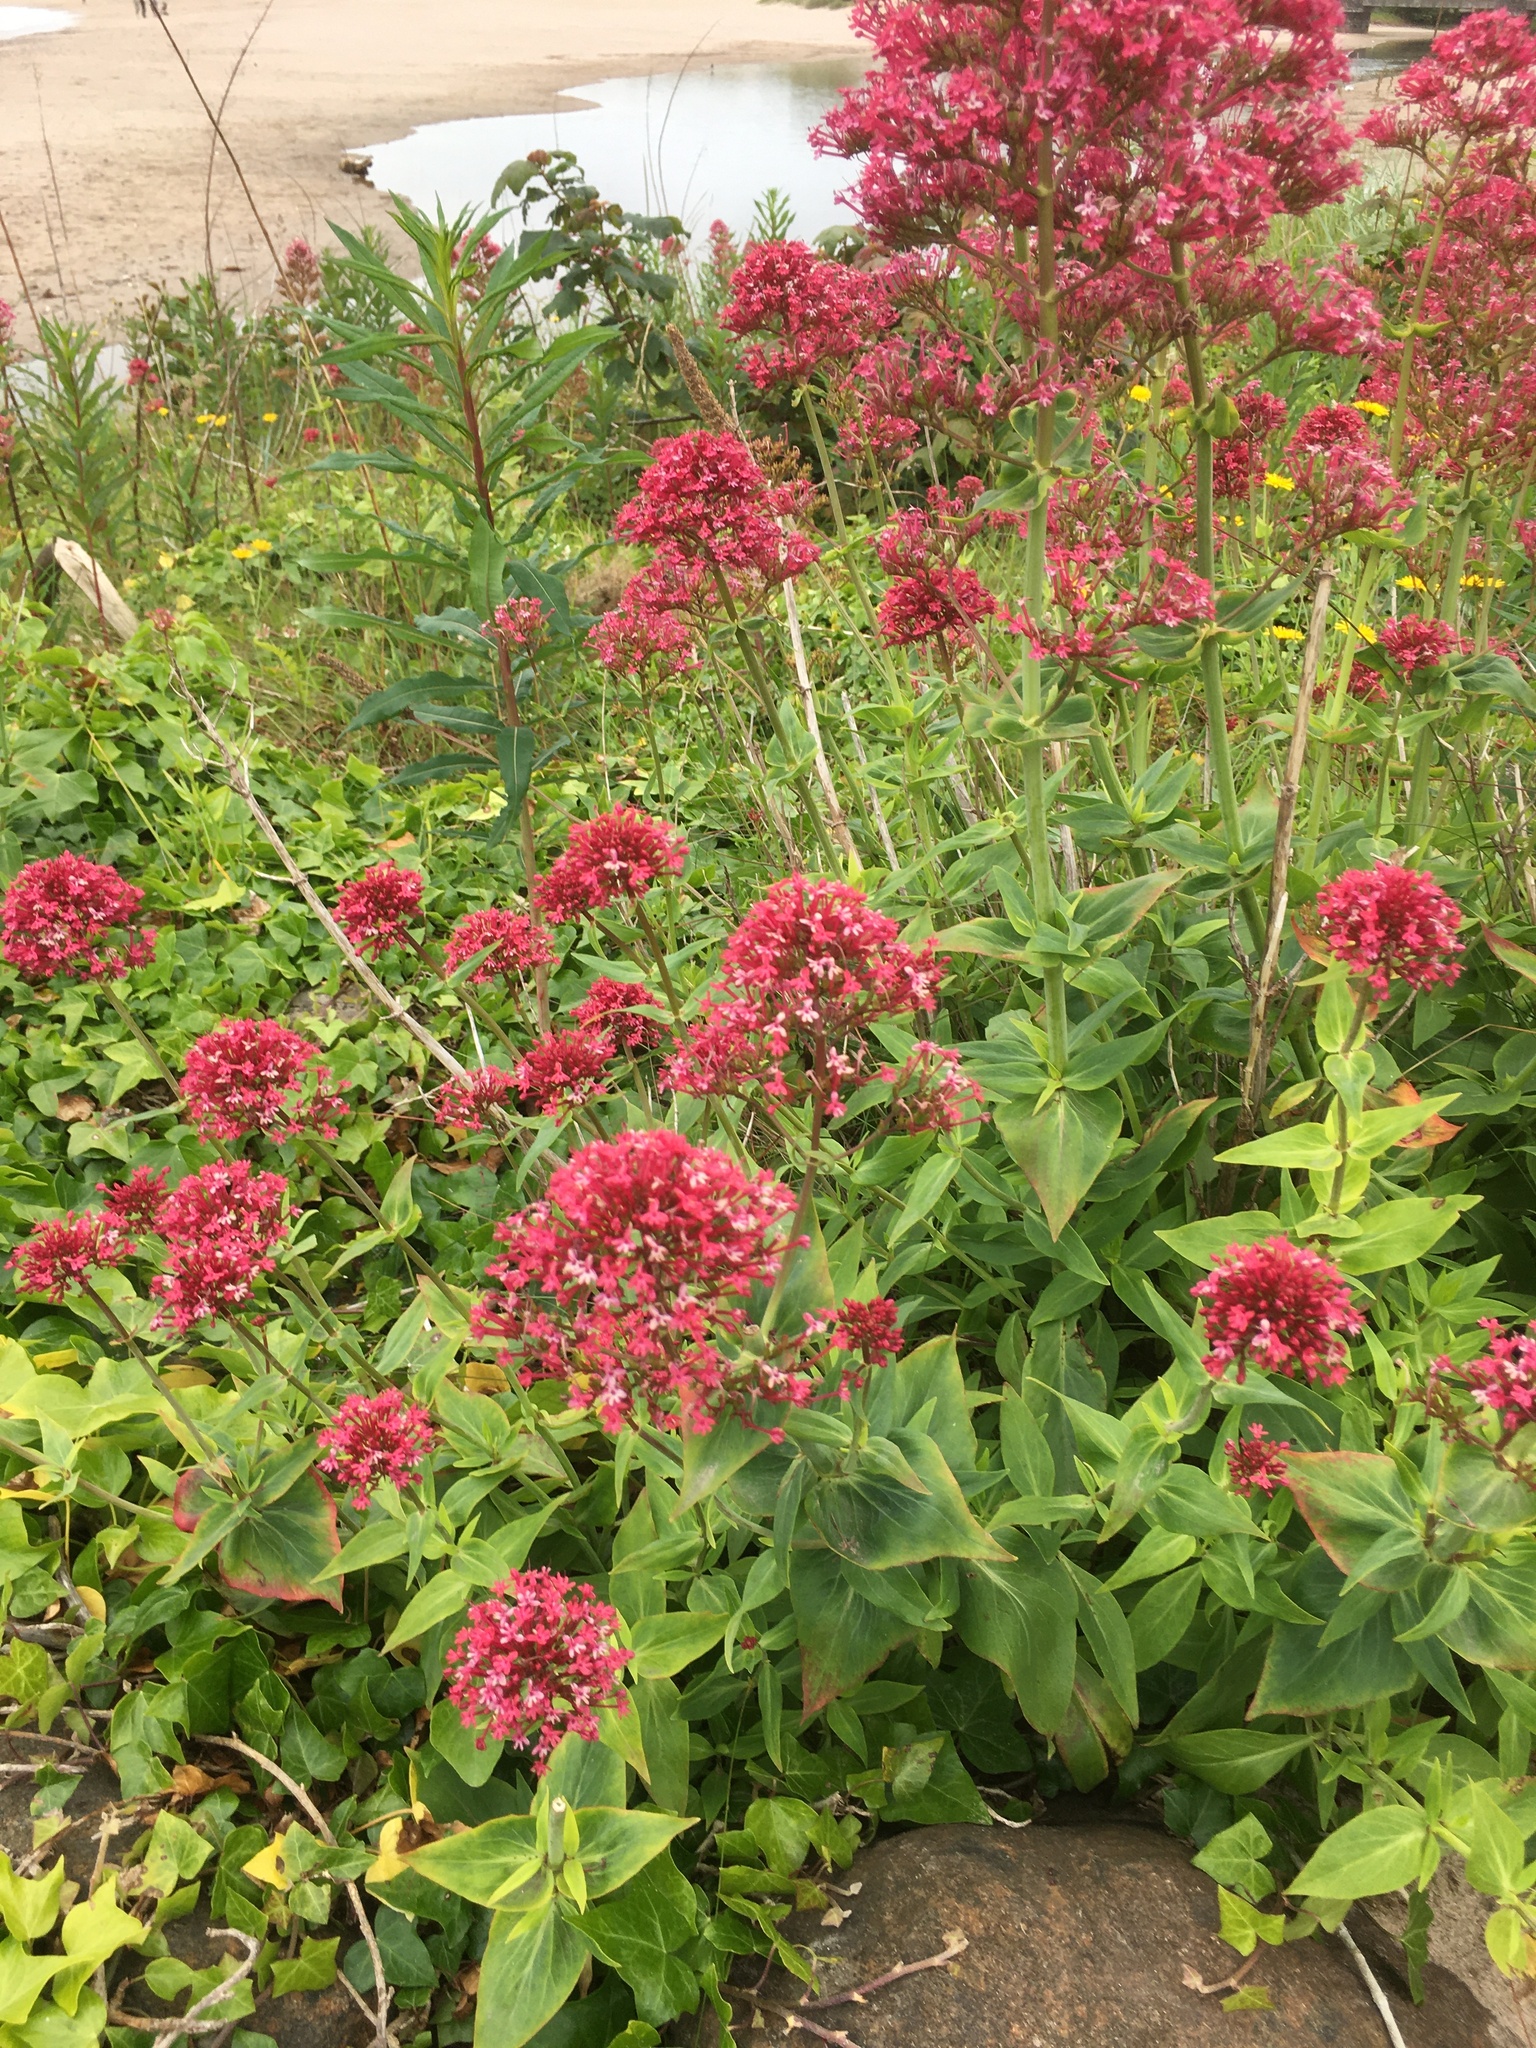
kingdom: Plantae
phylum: Tracheophyta
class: Magnoliopsida
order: Dipsacales
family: Caprifoliaceae
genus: Centranthus
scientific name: Centranthus ruber
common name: Red valerian
